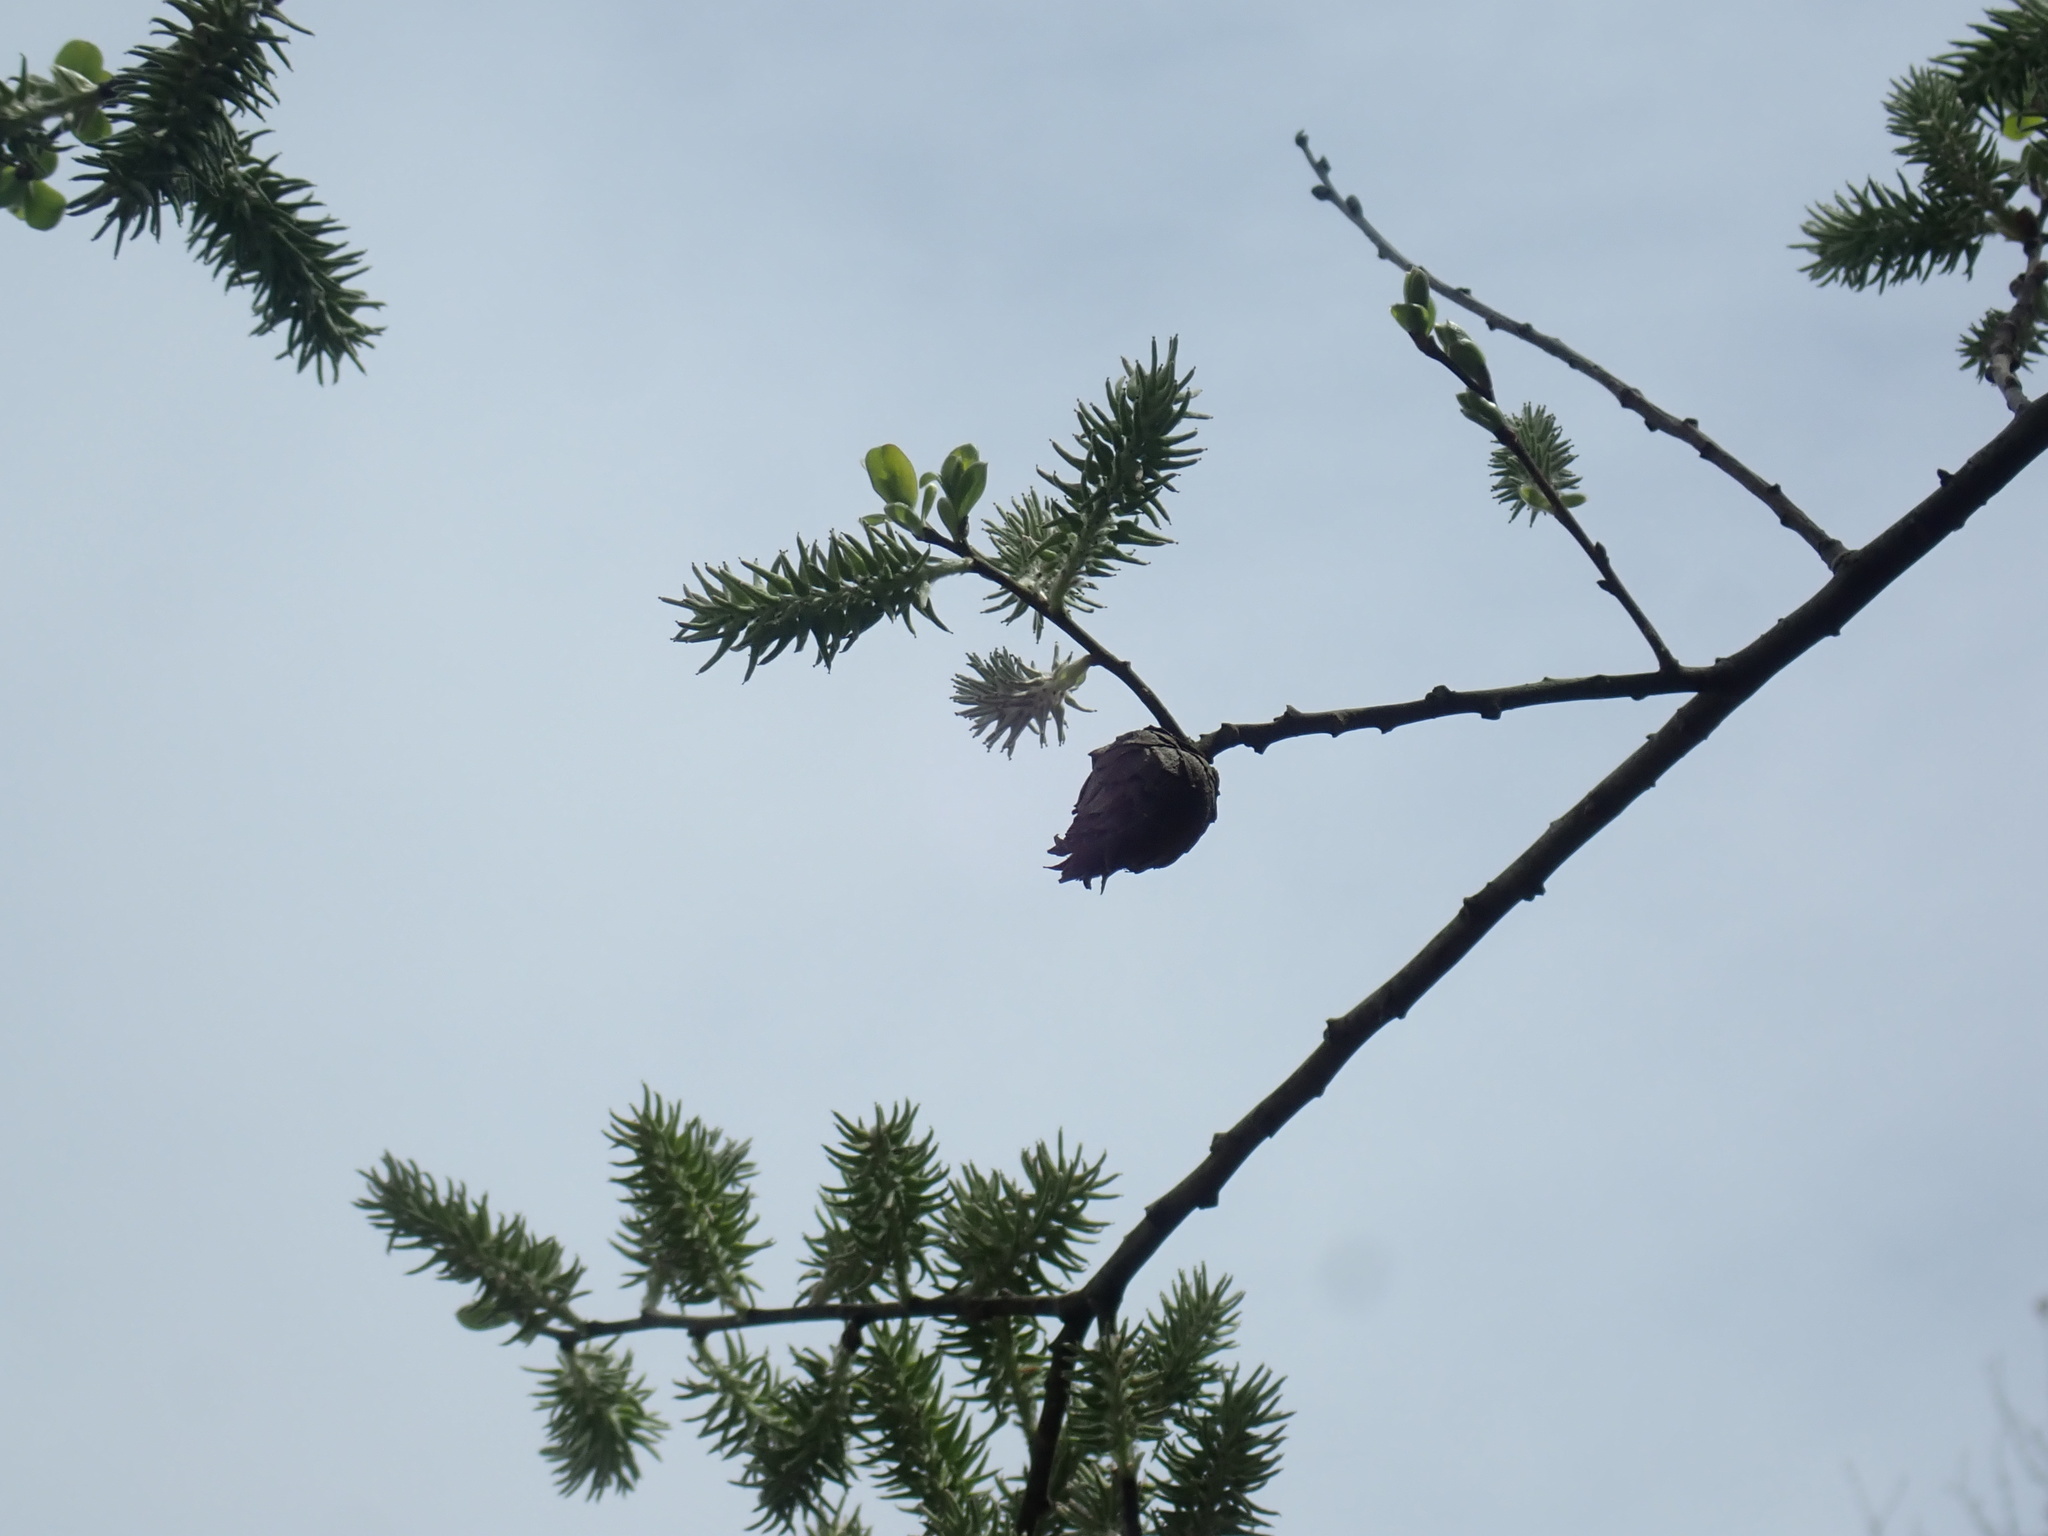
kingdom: Animalia
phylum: Arthropoda
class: Insecta
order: Diptera
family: Cecidomyiidae
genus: Rabdophaga
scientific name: Rabdophaga strobiloides
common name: Willow pinecone gall midge
